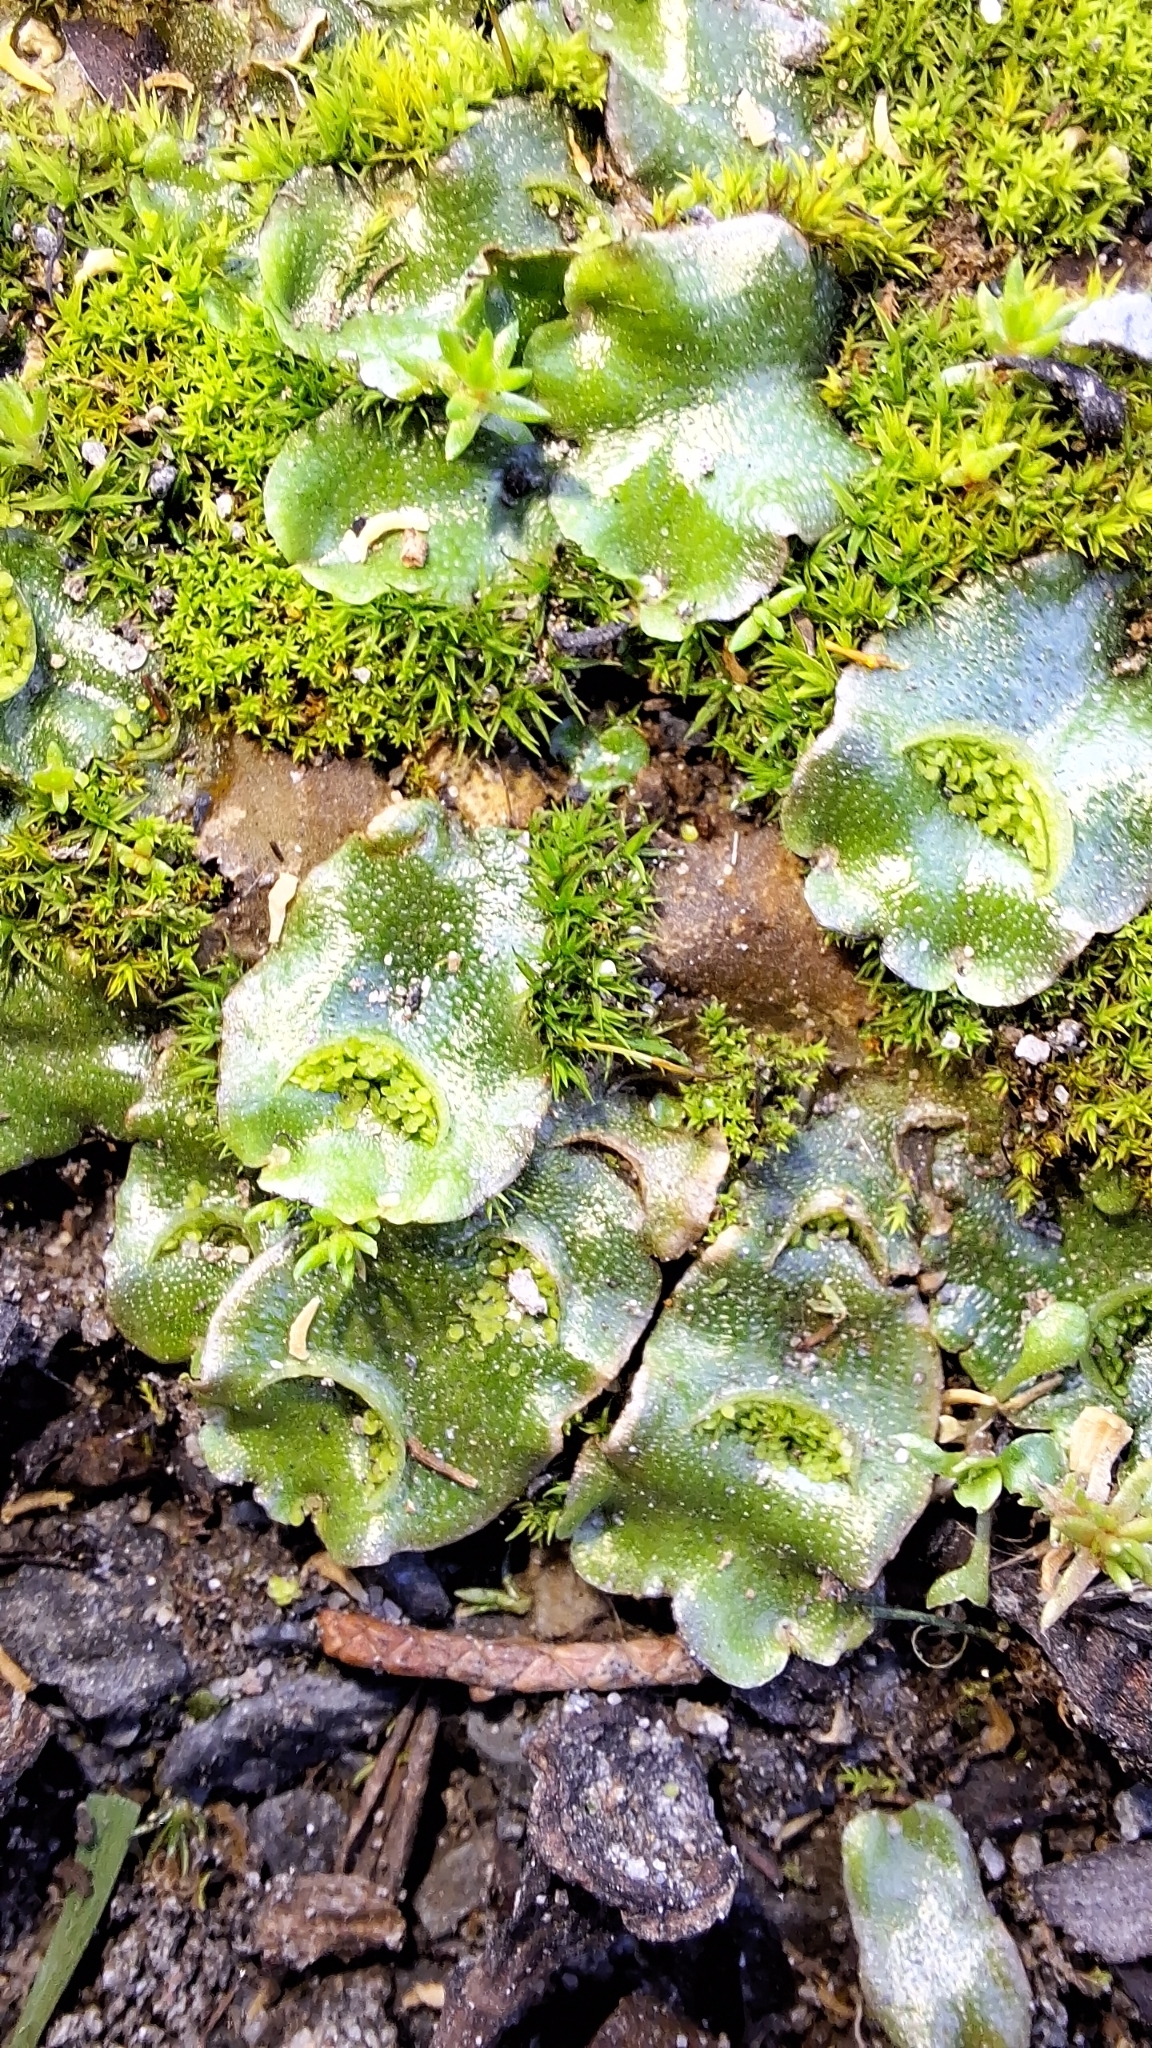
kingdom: Plantae
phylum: Marchantiophyta
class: Marchantiopsida
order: Lunulariales
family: Lunulariaceae
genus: Lunularia
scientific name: Lunularia cruciata
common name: Crescent-cup liverwort
